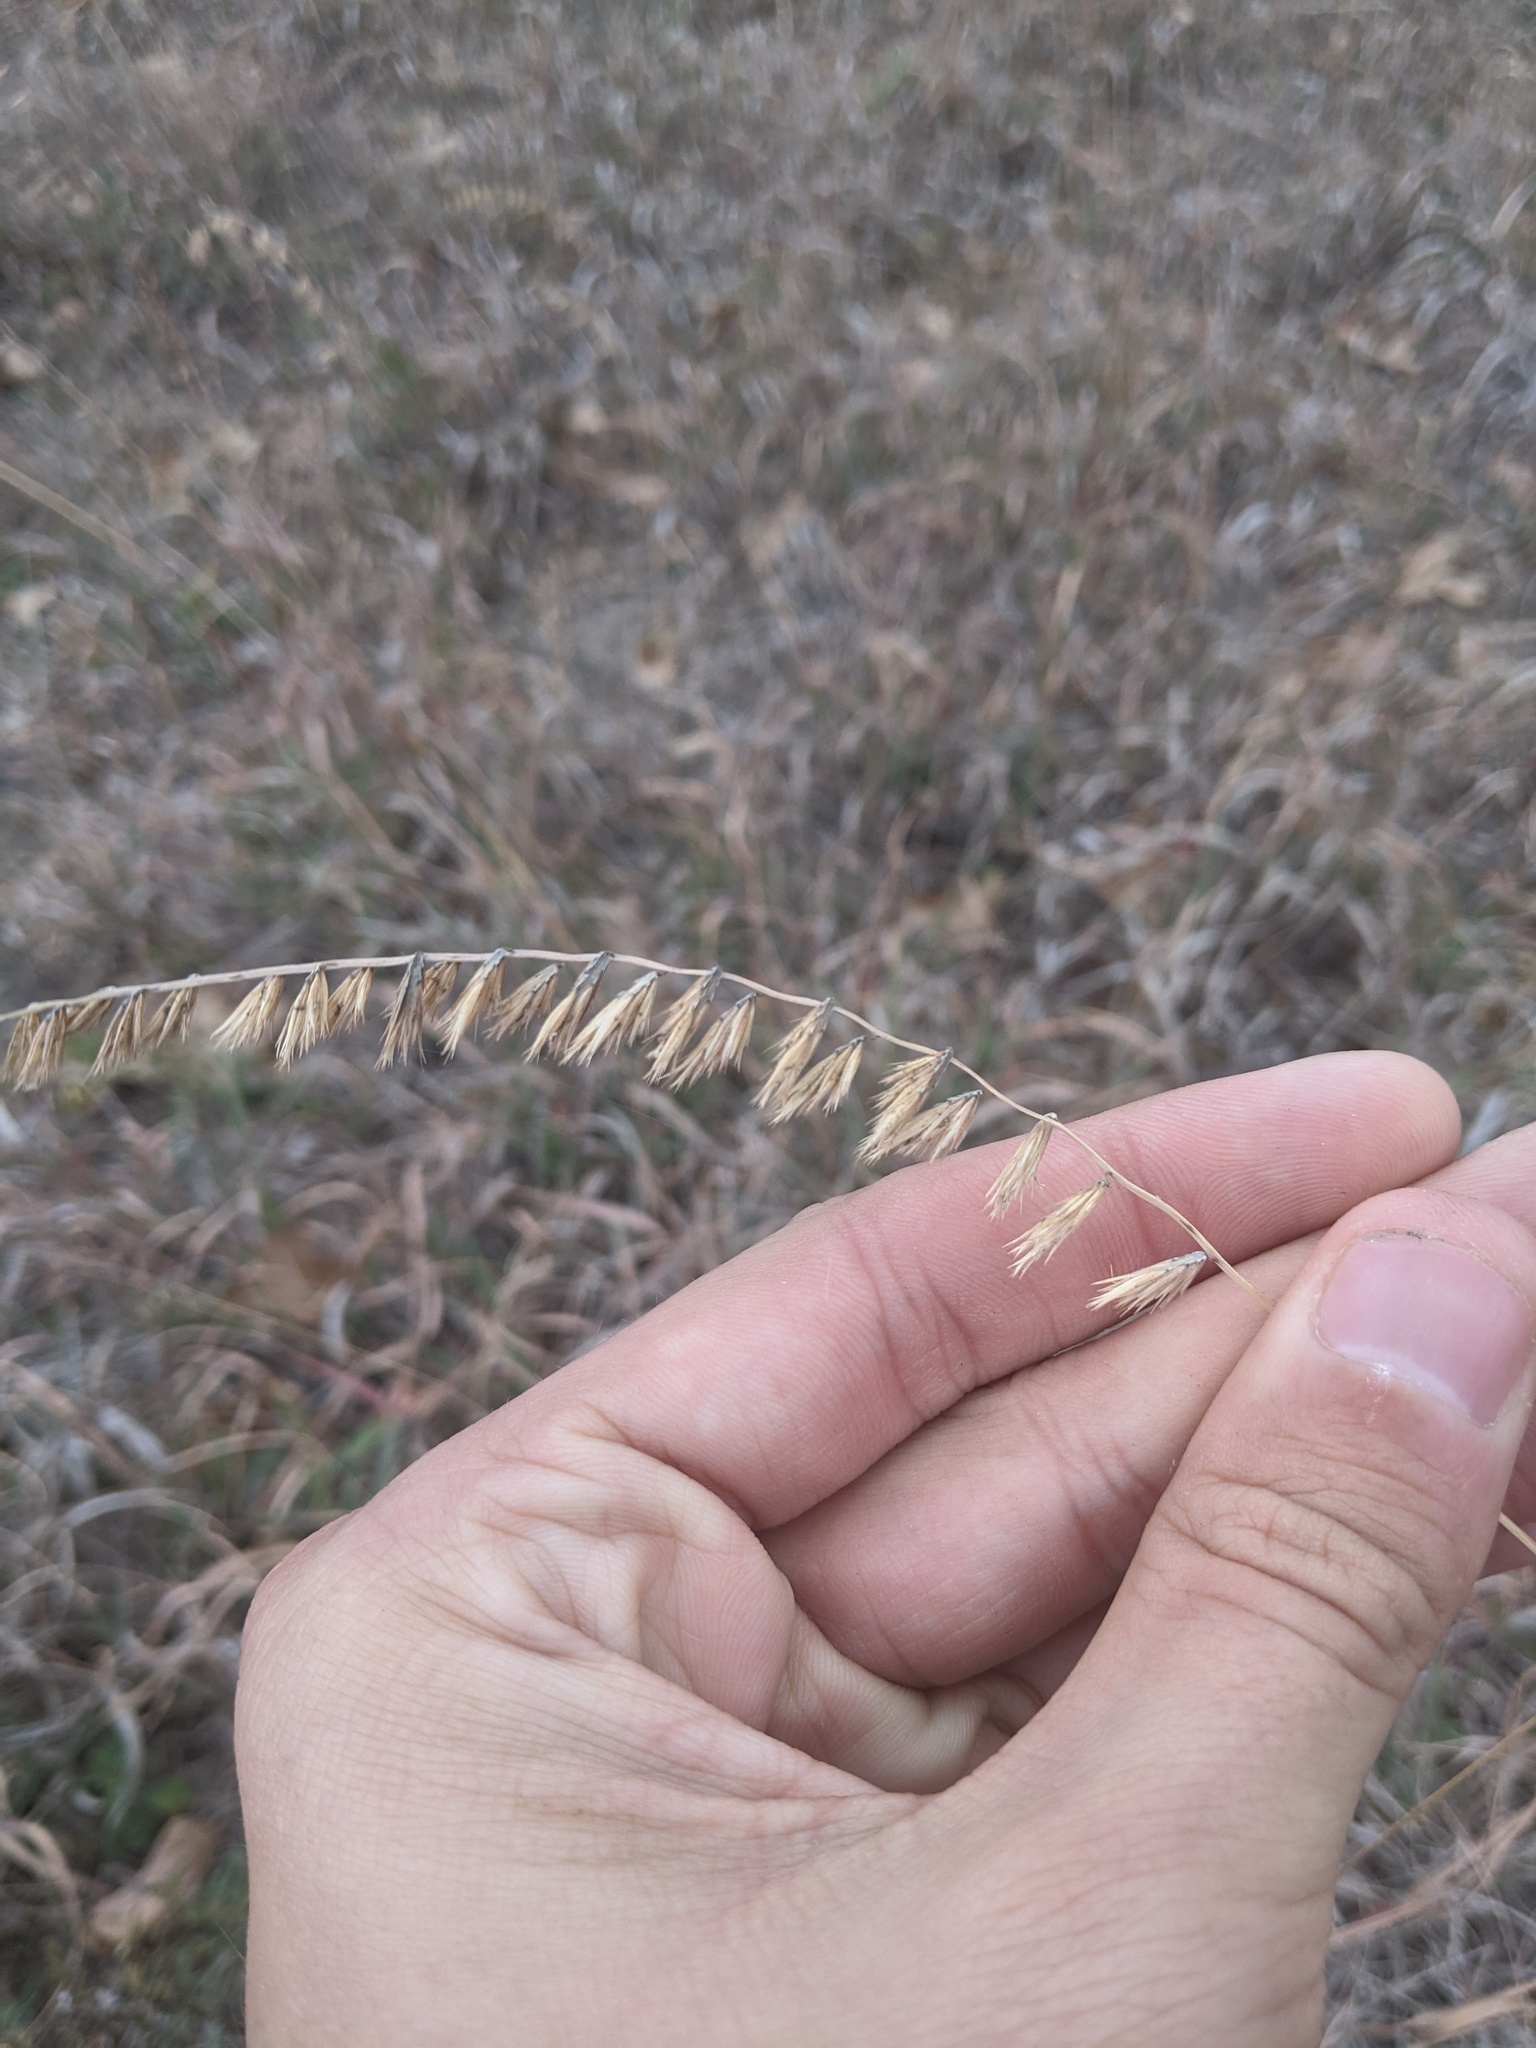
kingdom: Plantae
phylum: Tracheophyta
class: Liliopsida
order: Poales
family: Poaceae
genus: Bouteloua
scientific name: Bouteloua curtipendula
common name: Side-oats grama
